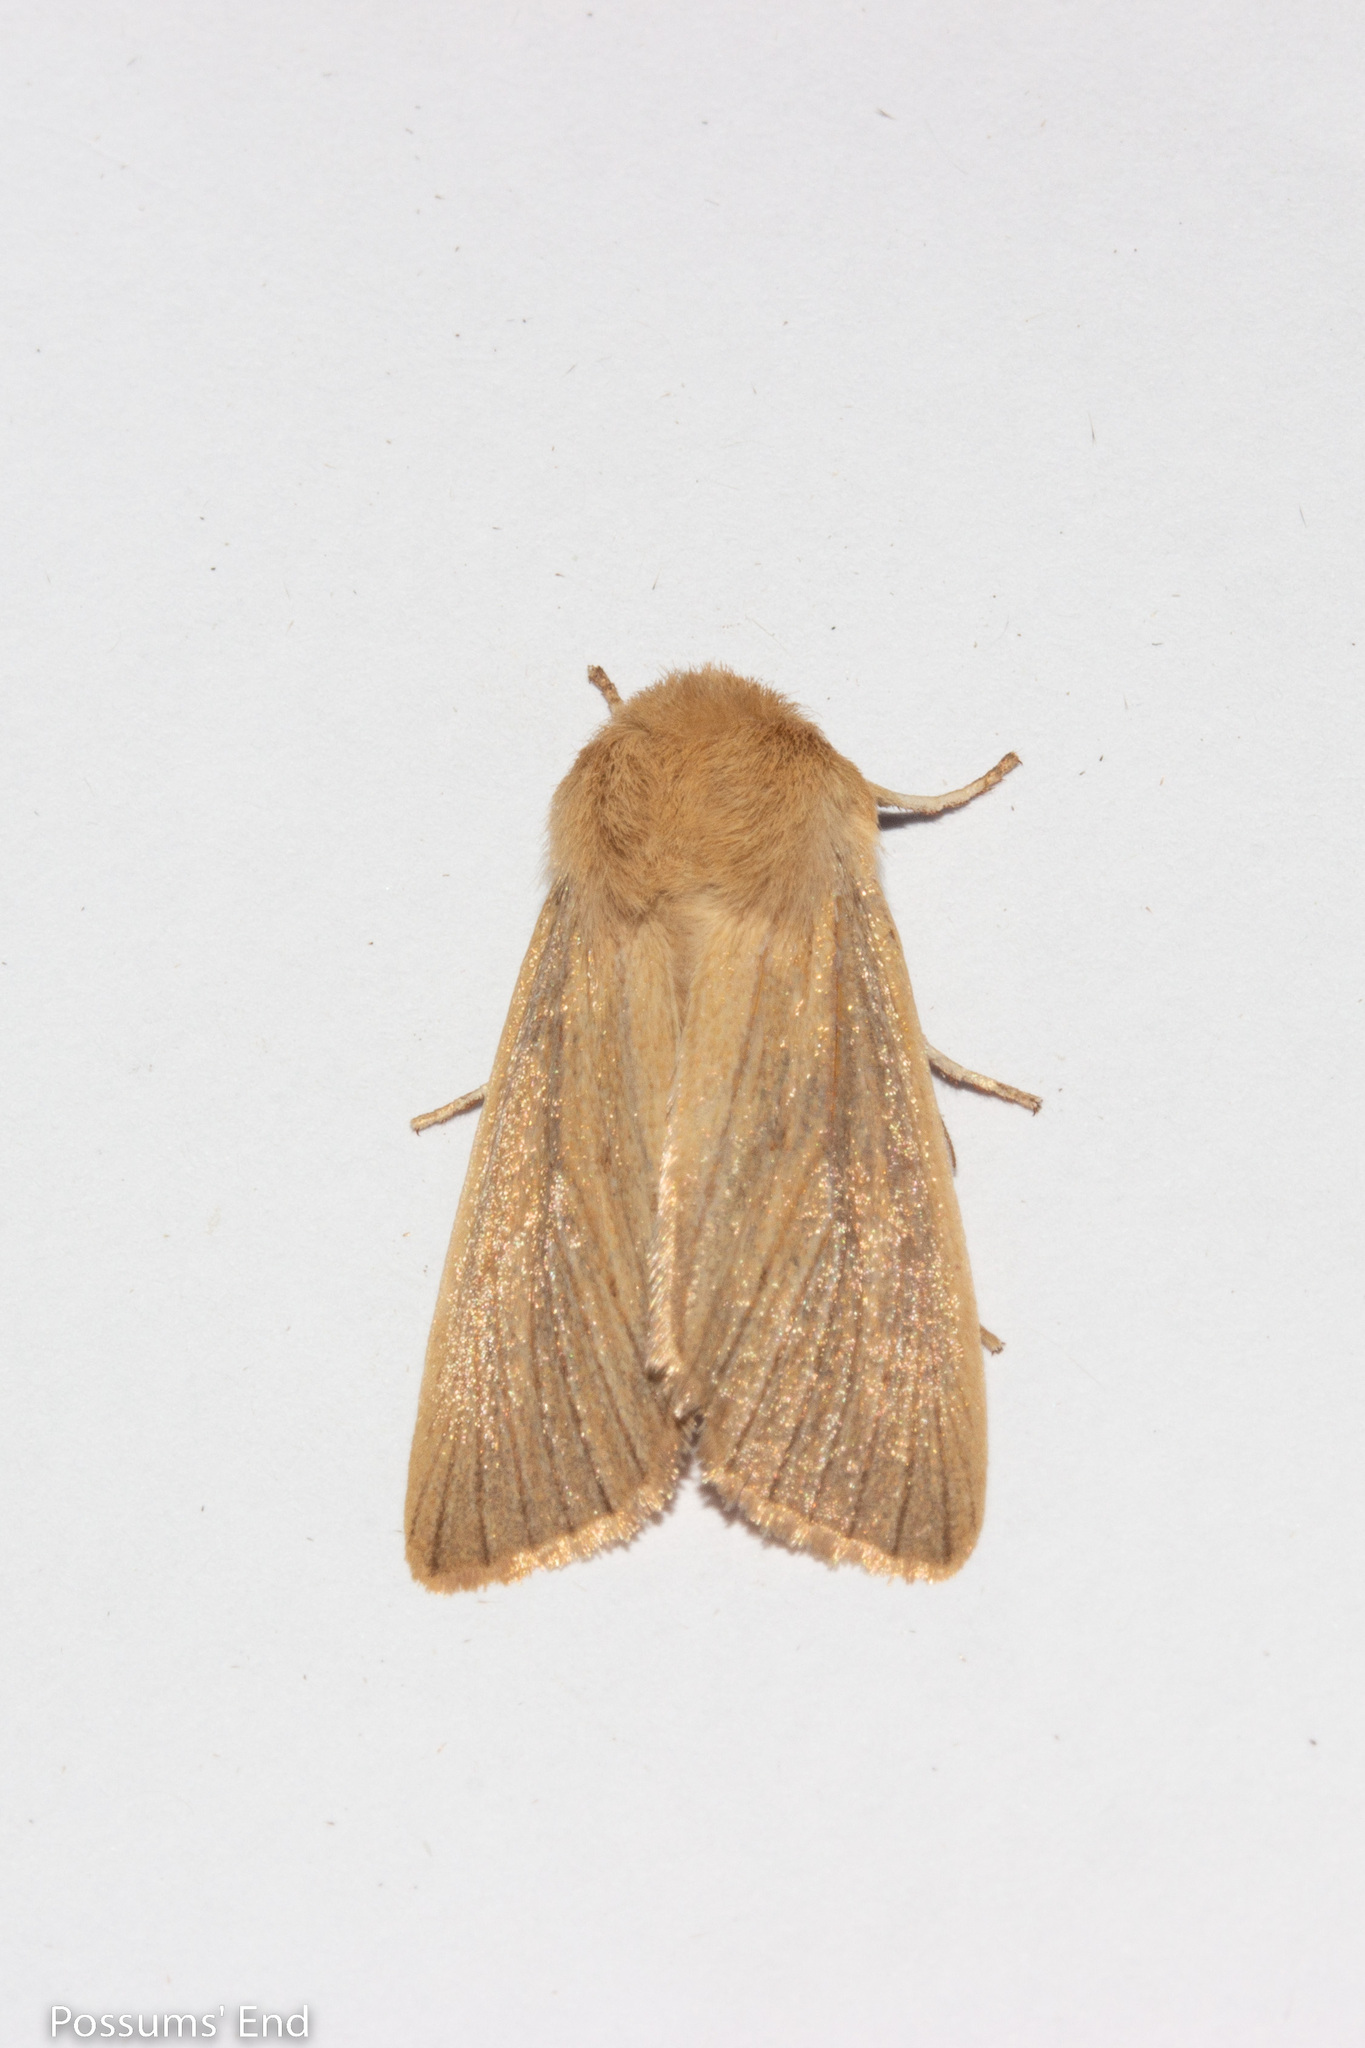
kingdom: Animalia
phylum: Arthropoda
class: Insecta
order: Lepidoptera
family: Noctuidae
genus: Ichneutica
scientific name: Ichneutica arotis
